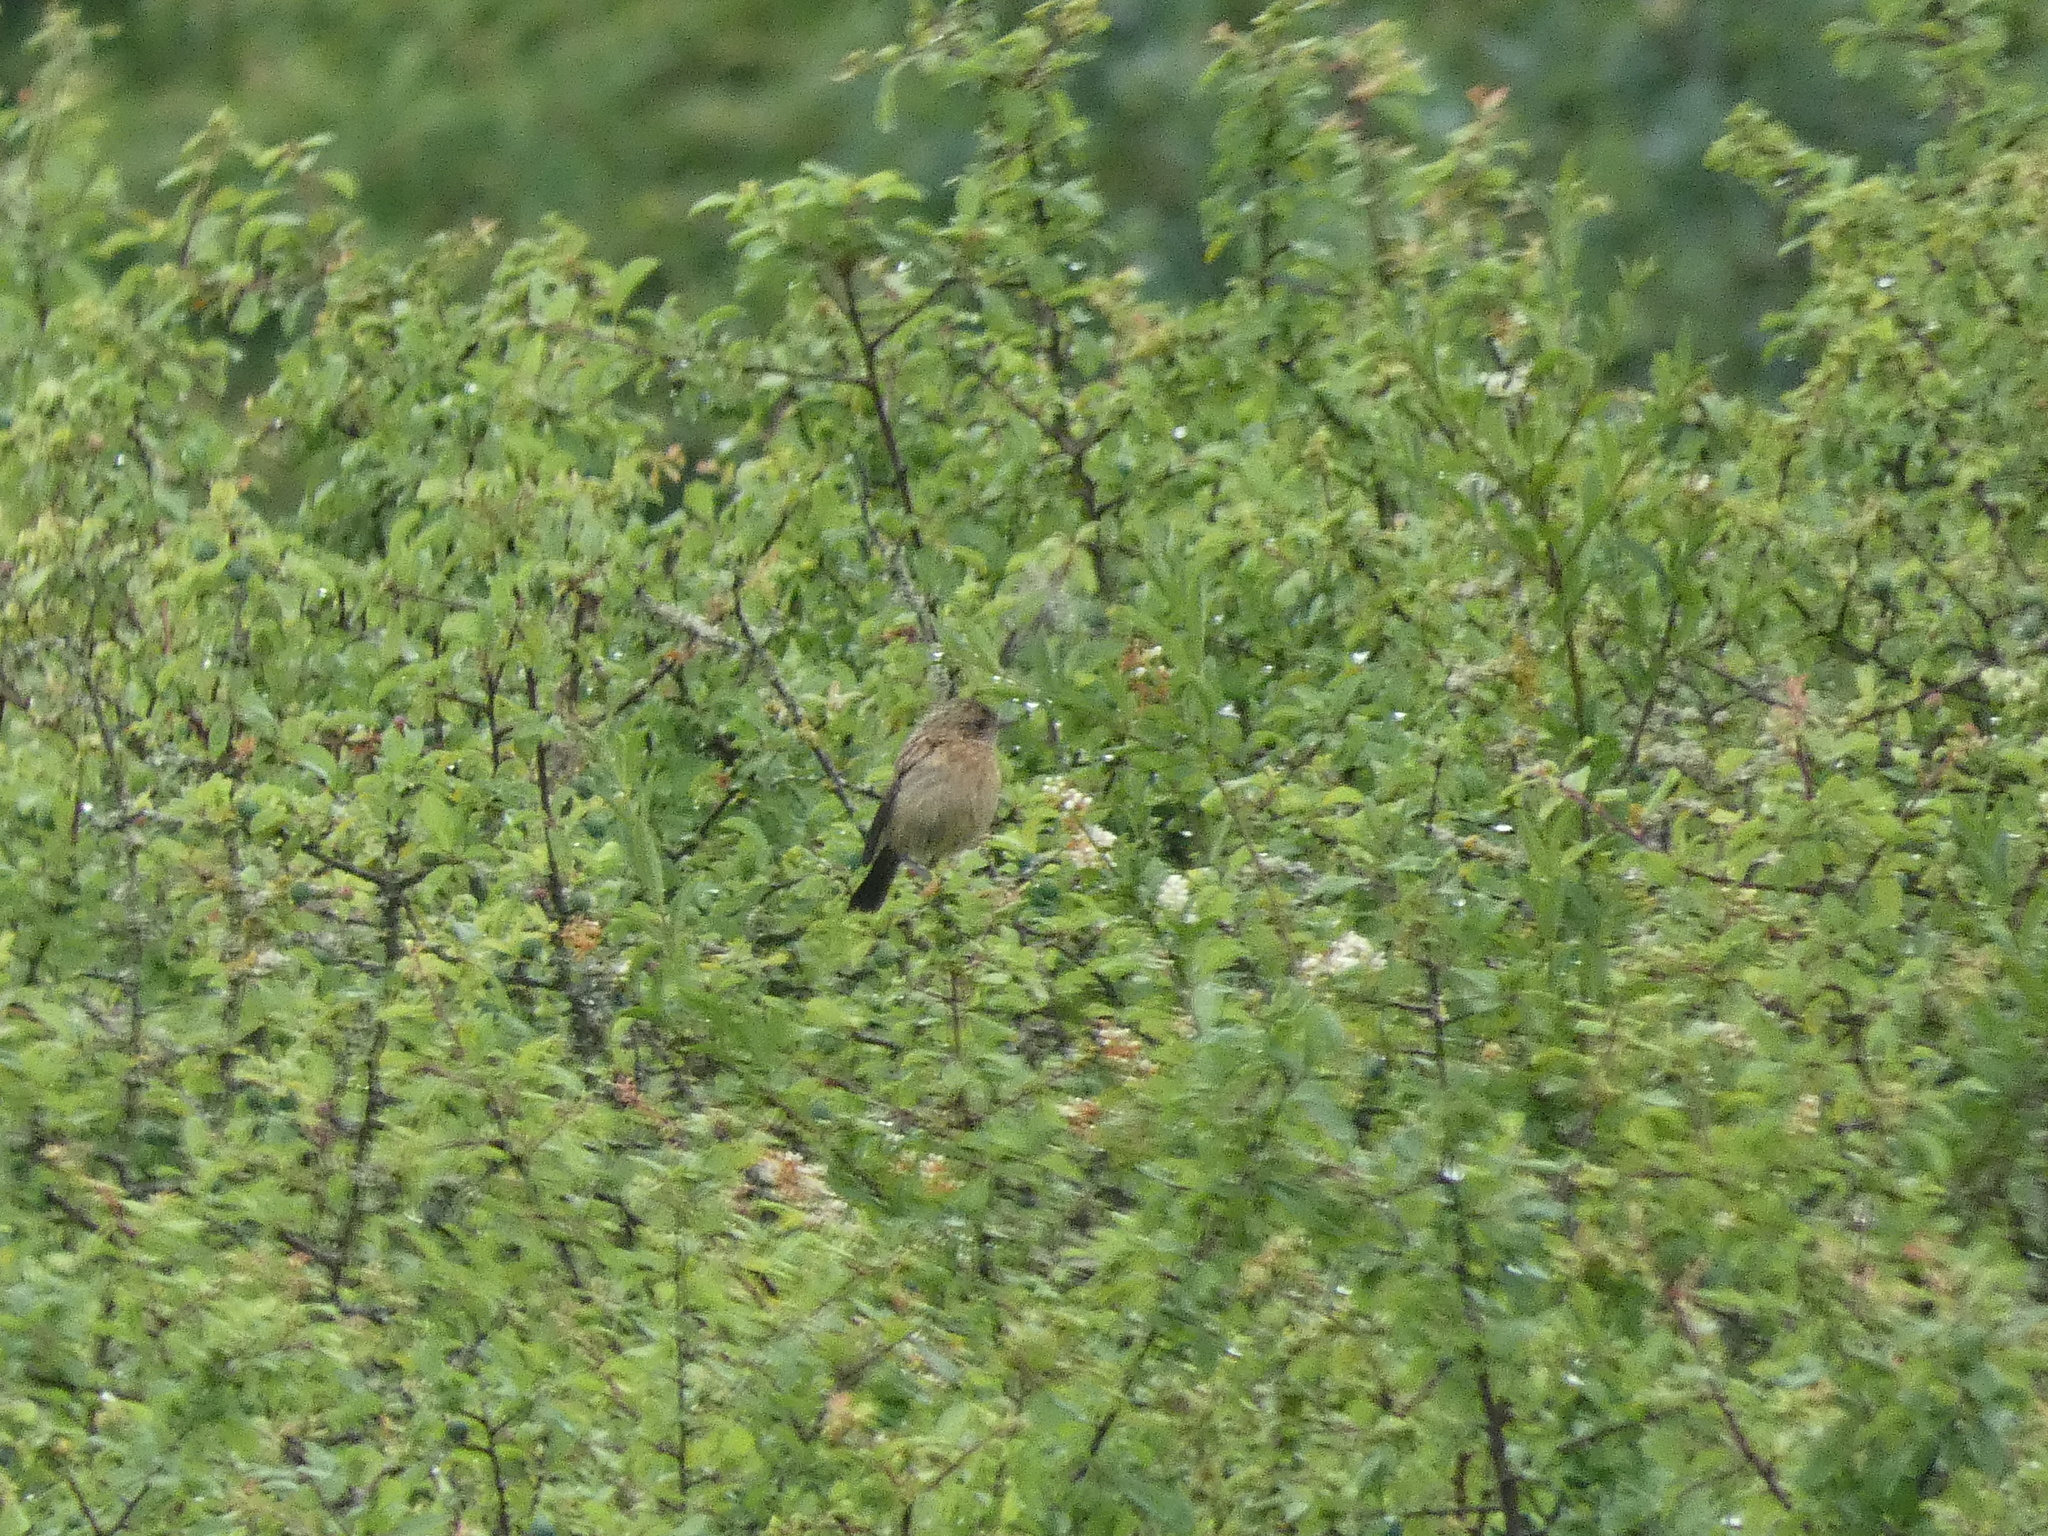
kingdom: Animalia
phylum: Chordata
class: Aves
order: Passeriformes
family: Muscicapidae
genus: Saxicola
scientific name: Saxicola rubicola
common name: European stonechat
